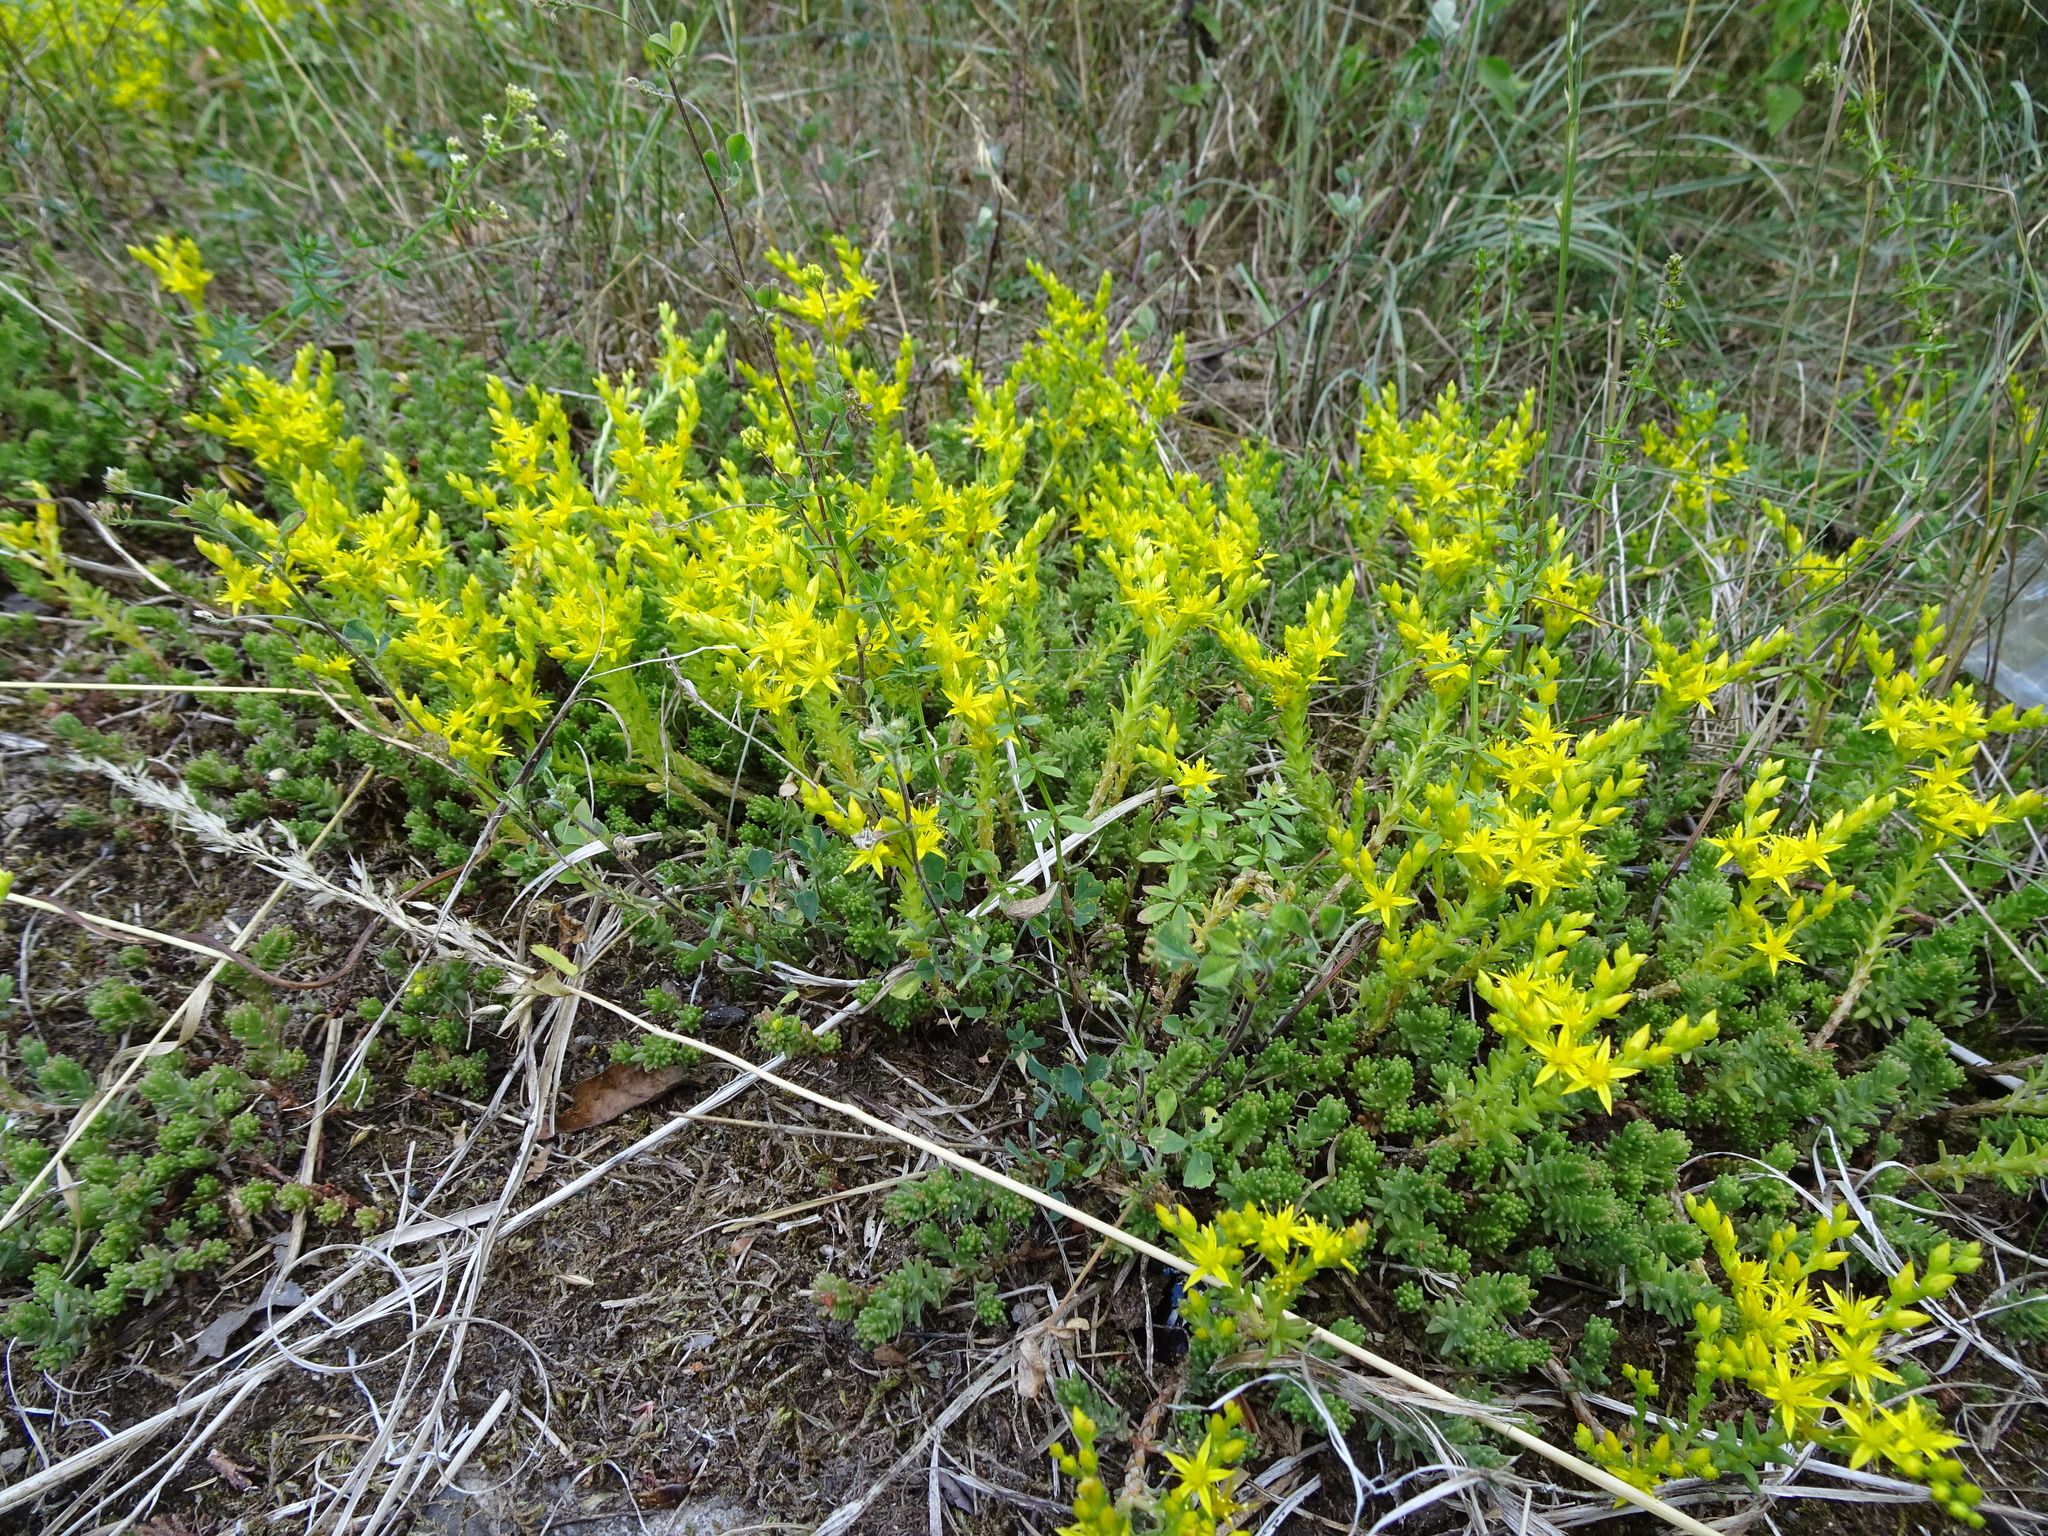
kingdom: Plantae
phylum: Tracheophyta
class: Magnoliopsida
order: Saxifragales
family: Crassulaceae
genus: Sedum
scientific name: Sedum sexangulare
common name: Tasteless stonecrop
